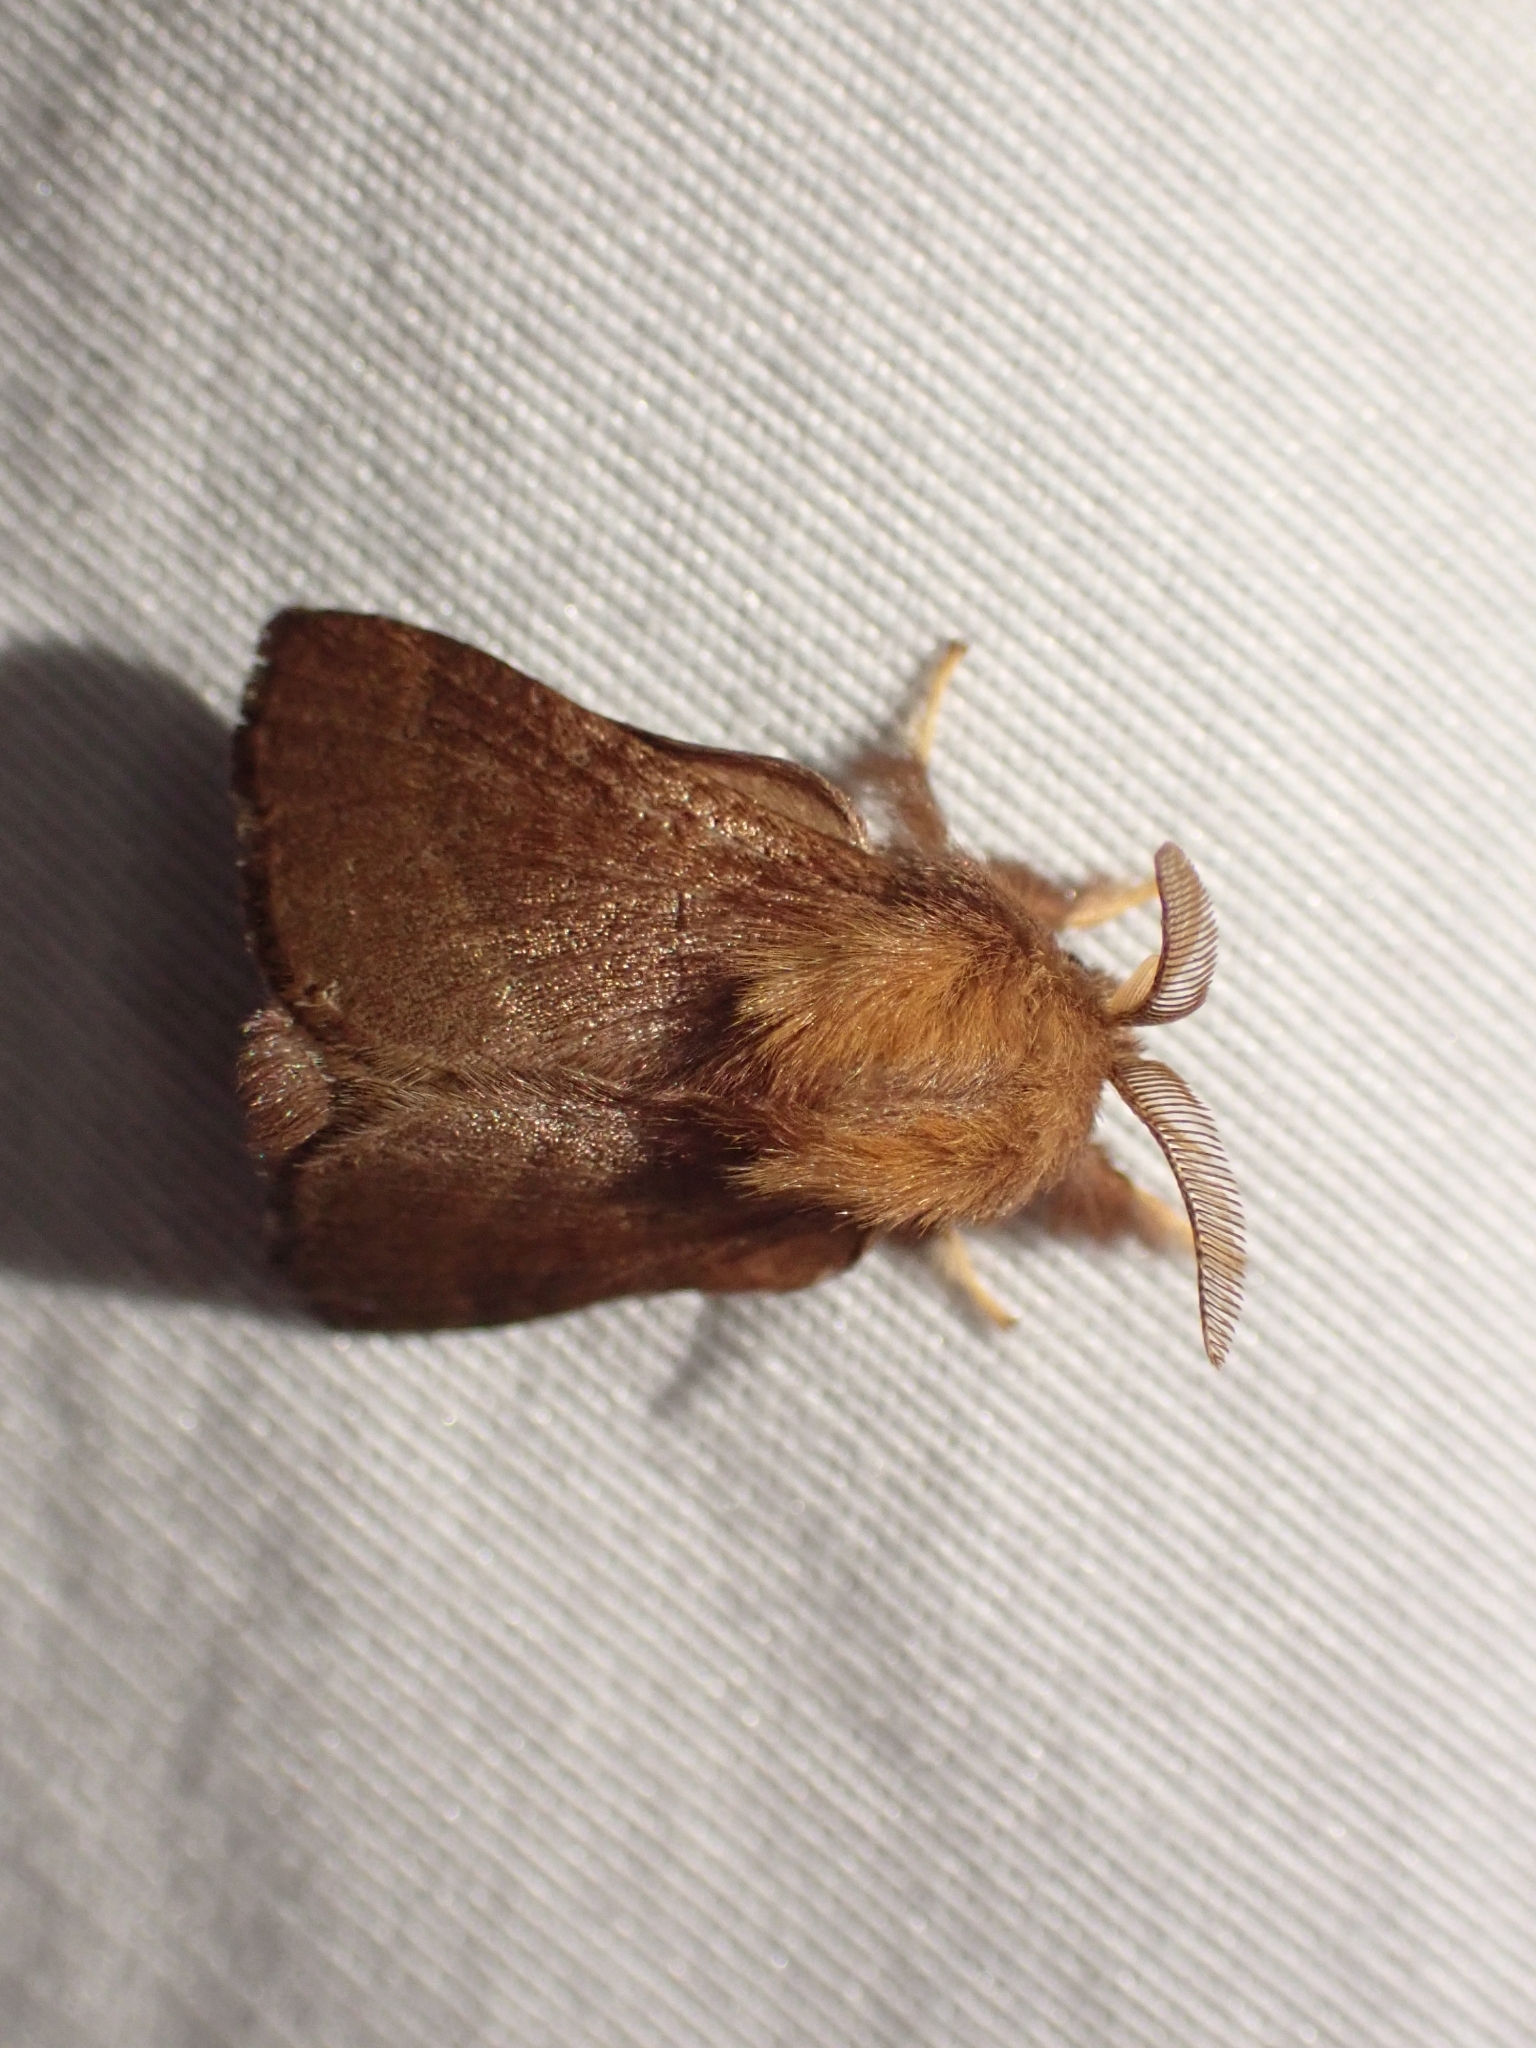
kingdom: Animalia
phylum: Arthropoda
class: Insecta
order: Lepidoptera
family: Lasiocampidae
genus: Malacosoma
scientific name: Malacosoma californica
